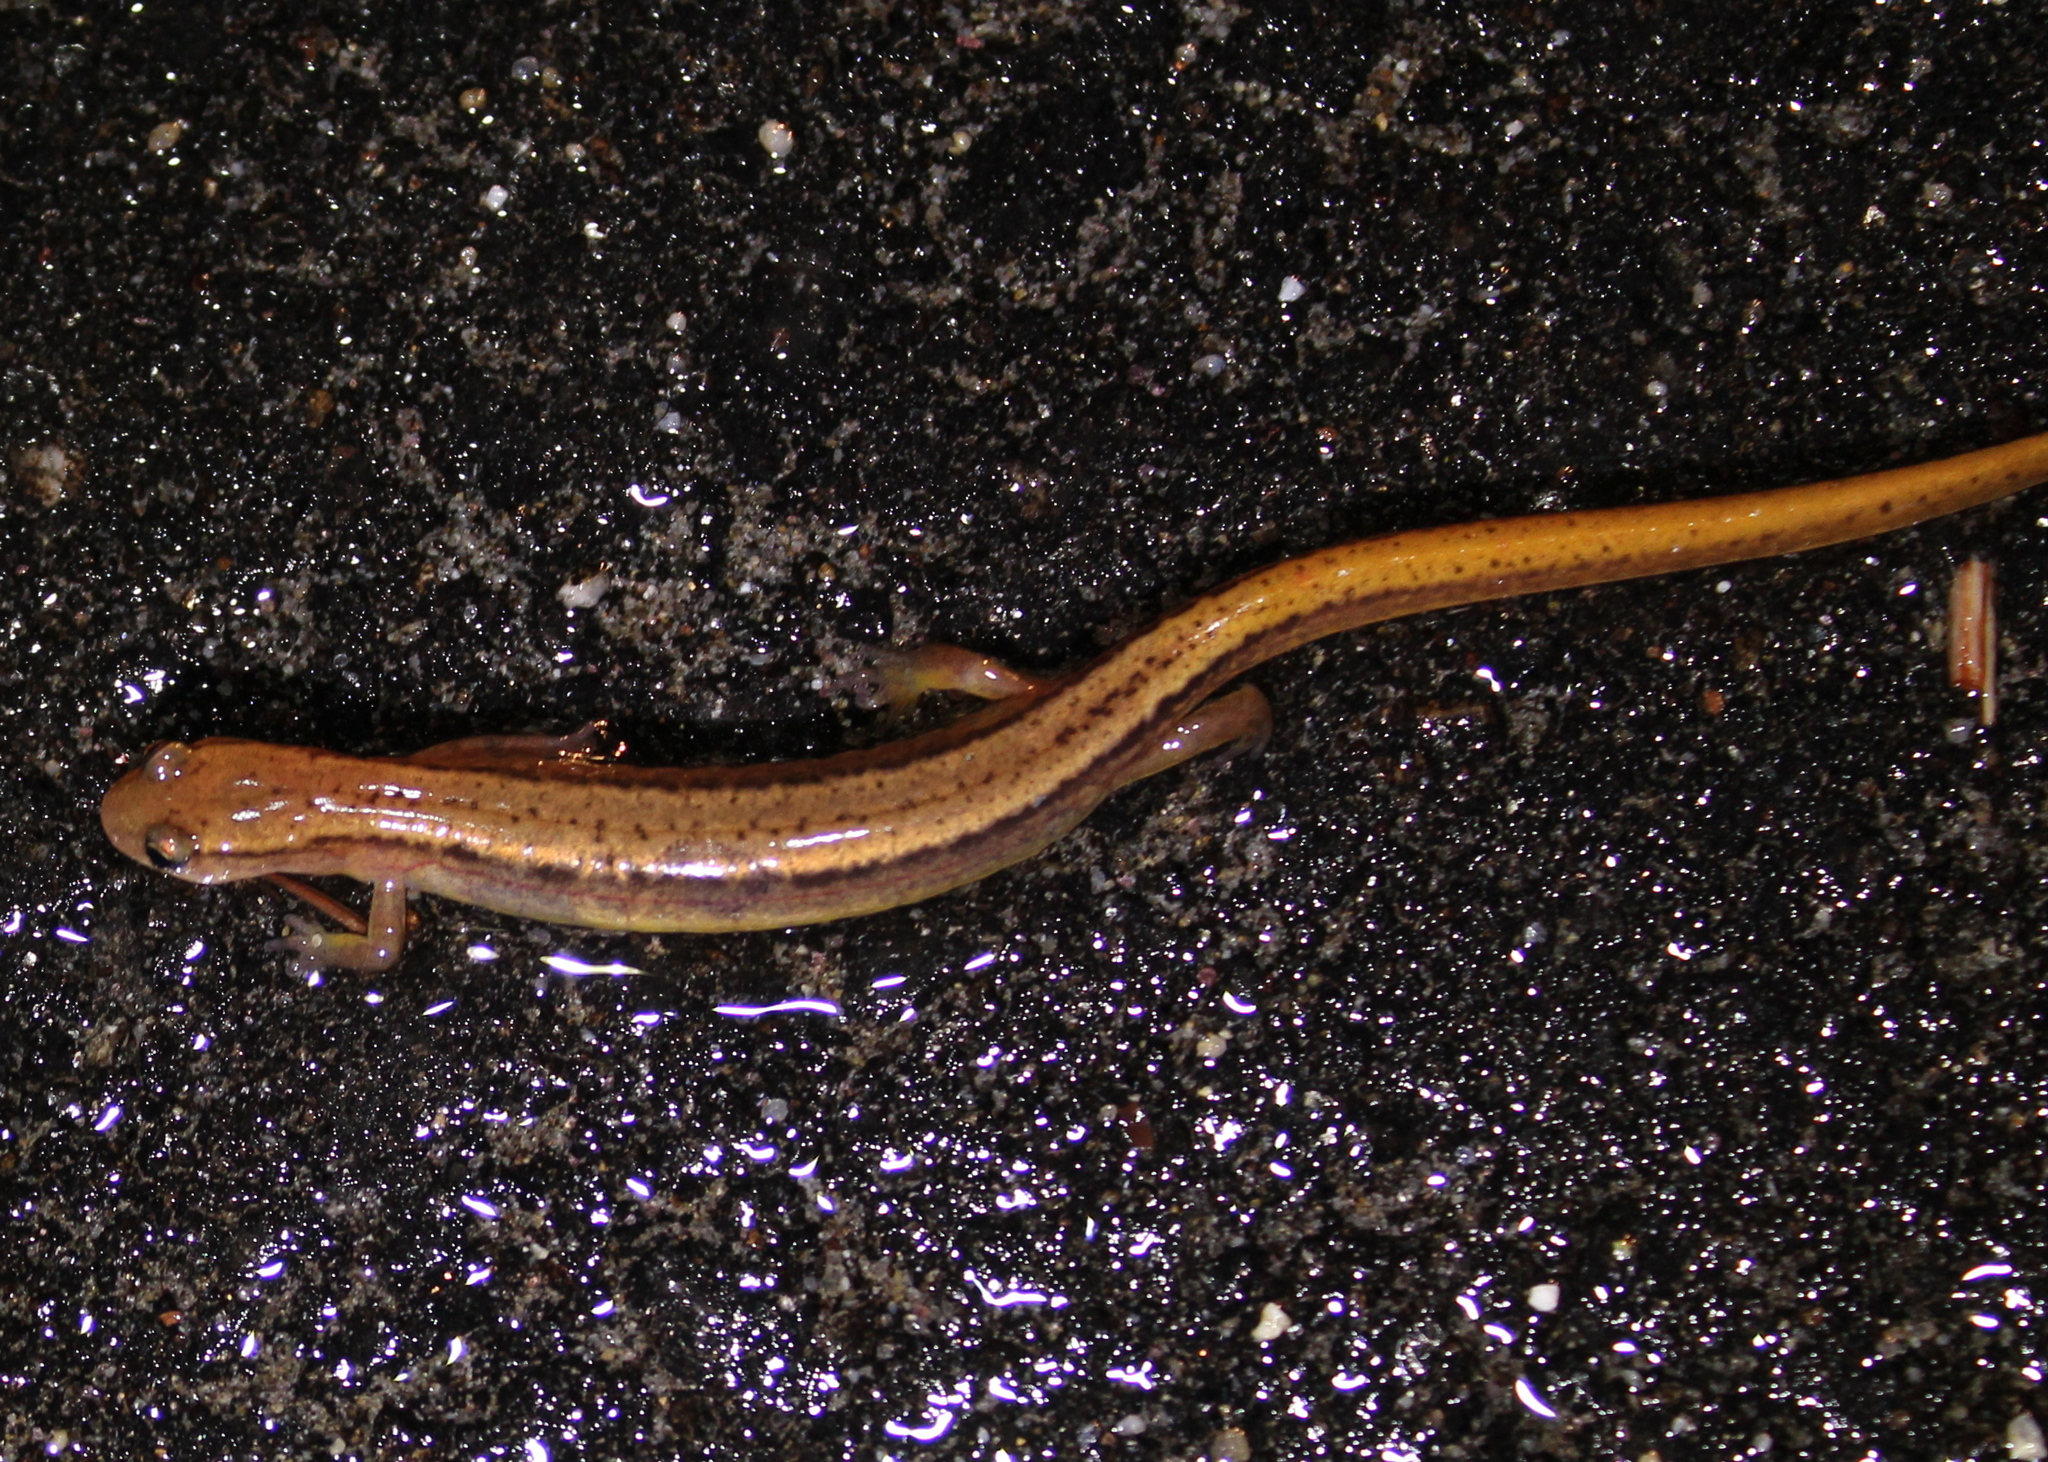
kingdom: Animalia
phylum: Chordata
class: Amphibia
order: Caudata
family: Plethodontidae
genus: Eurycea
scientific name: Eurycea bislineata
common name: Northern two-lined salamander
